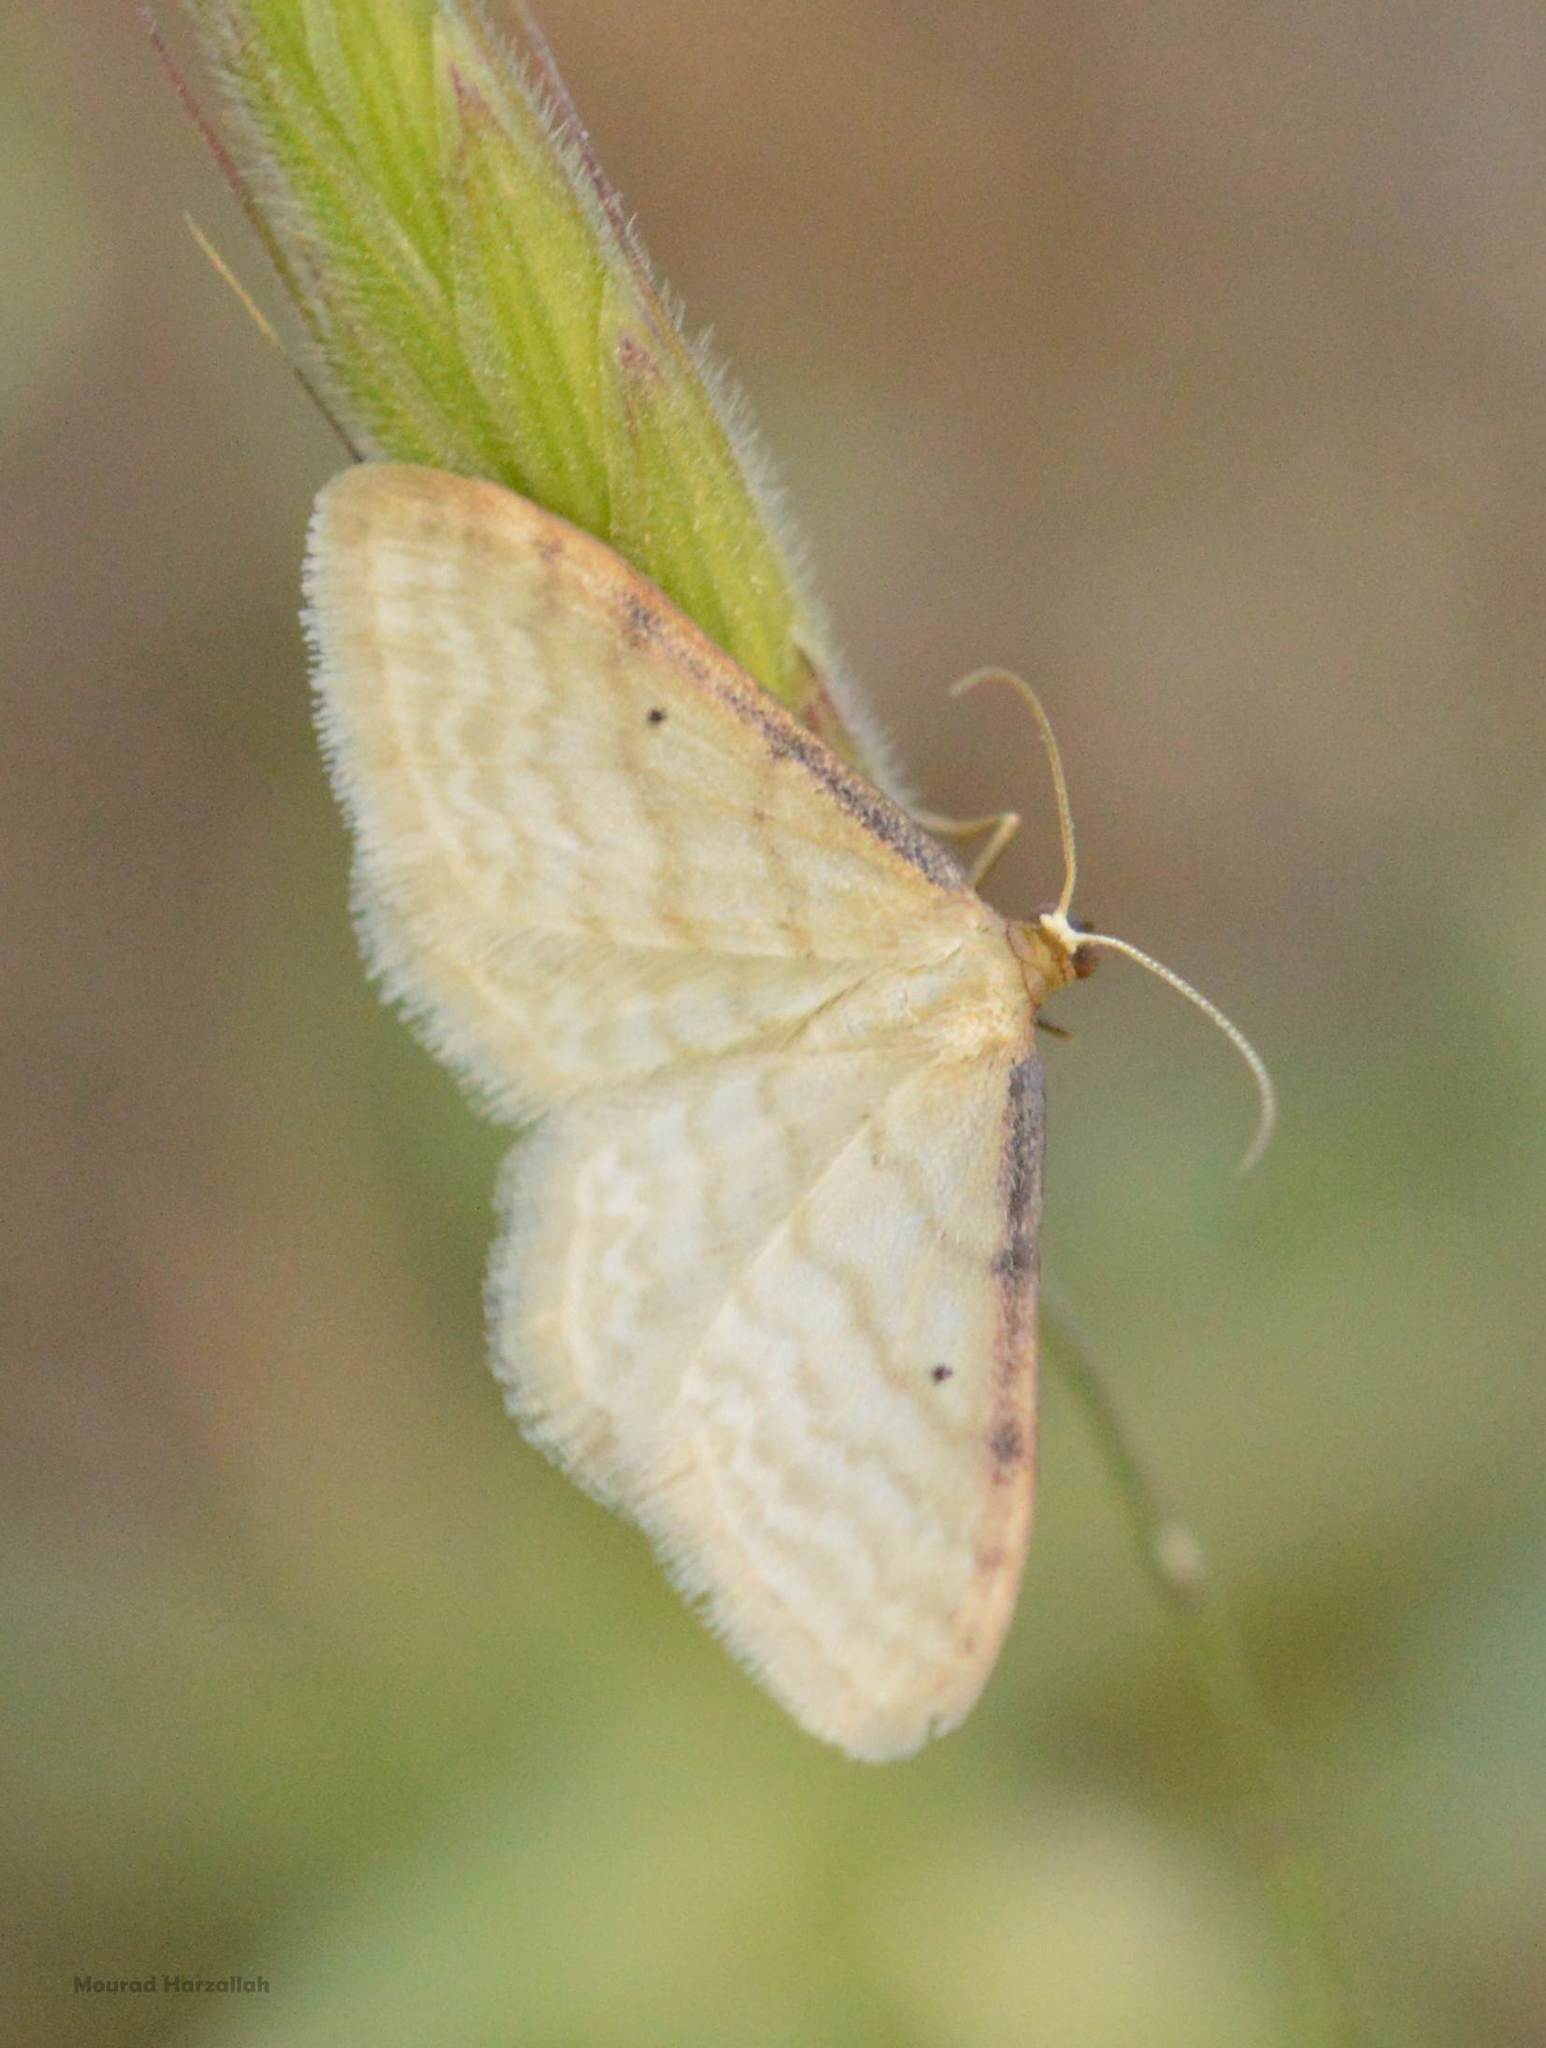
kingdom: Animalia
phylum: Arthropoda
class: Insecta
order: Lepidoptera
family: Geometridae
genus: Idaea
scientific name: Idaea humiliata
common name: Isle of wight wave
